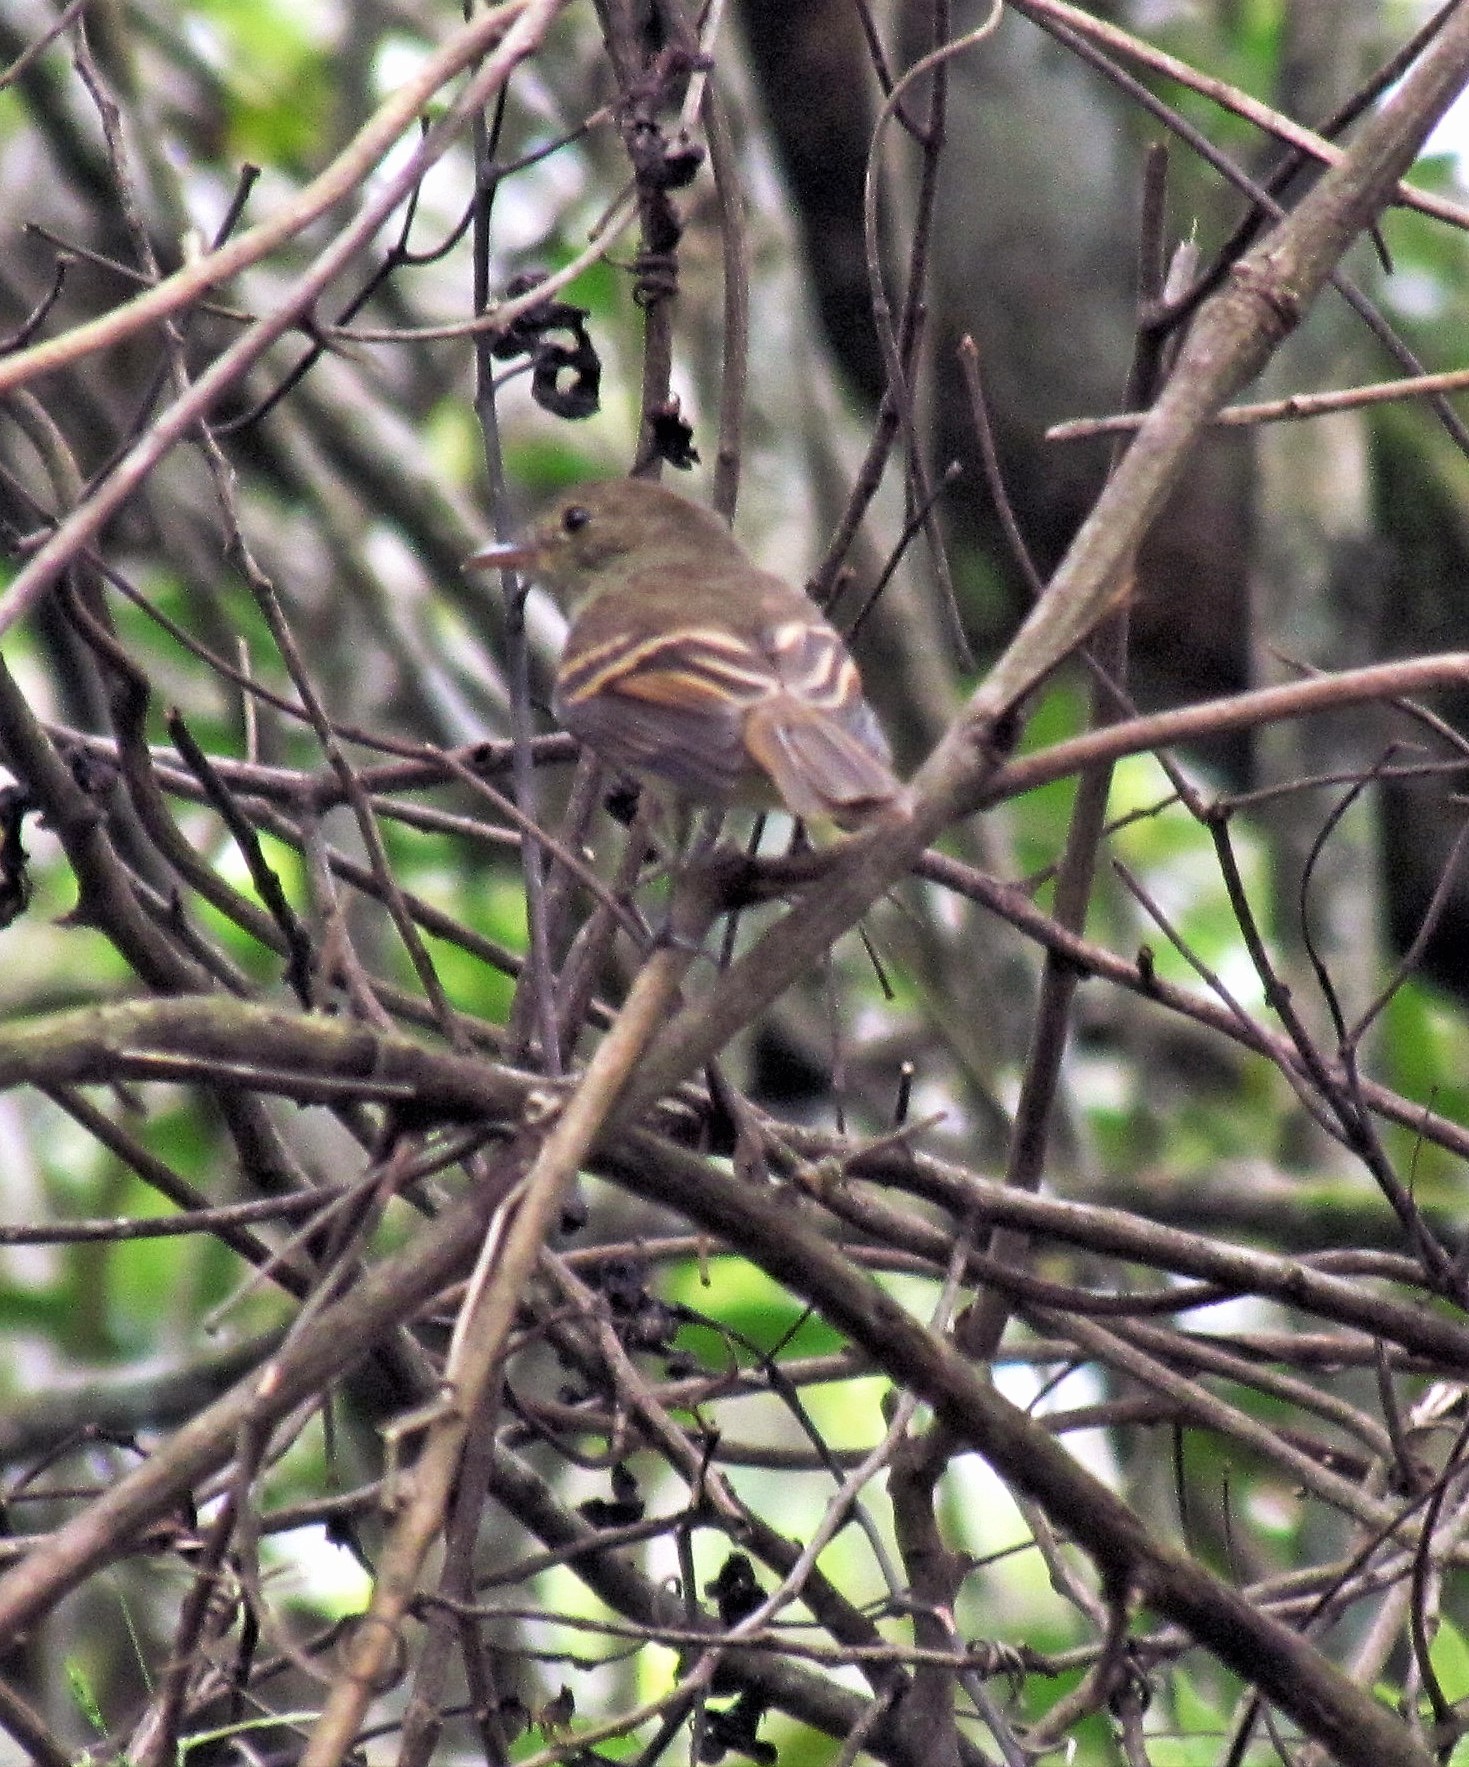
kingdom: Animalia
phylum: Chordata
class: Aves
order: Passeriformes
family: Tyrannidae
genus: Lathrotriccus
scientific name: Lathrotriccus euleri
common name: Euler's flycatcher
